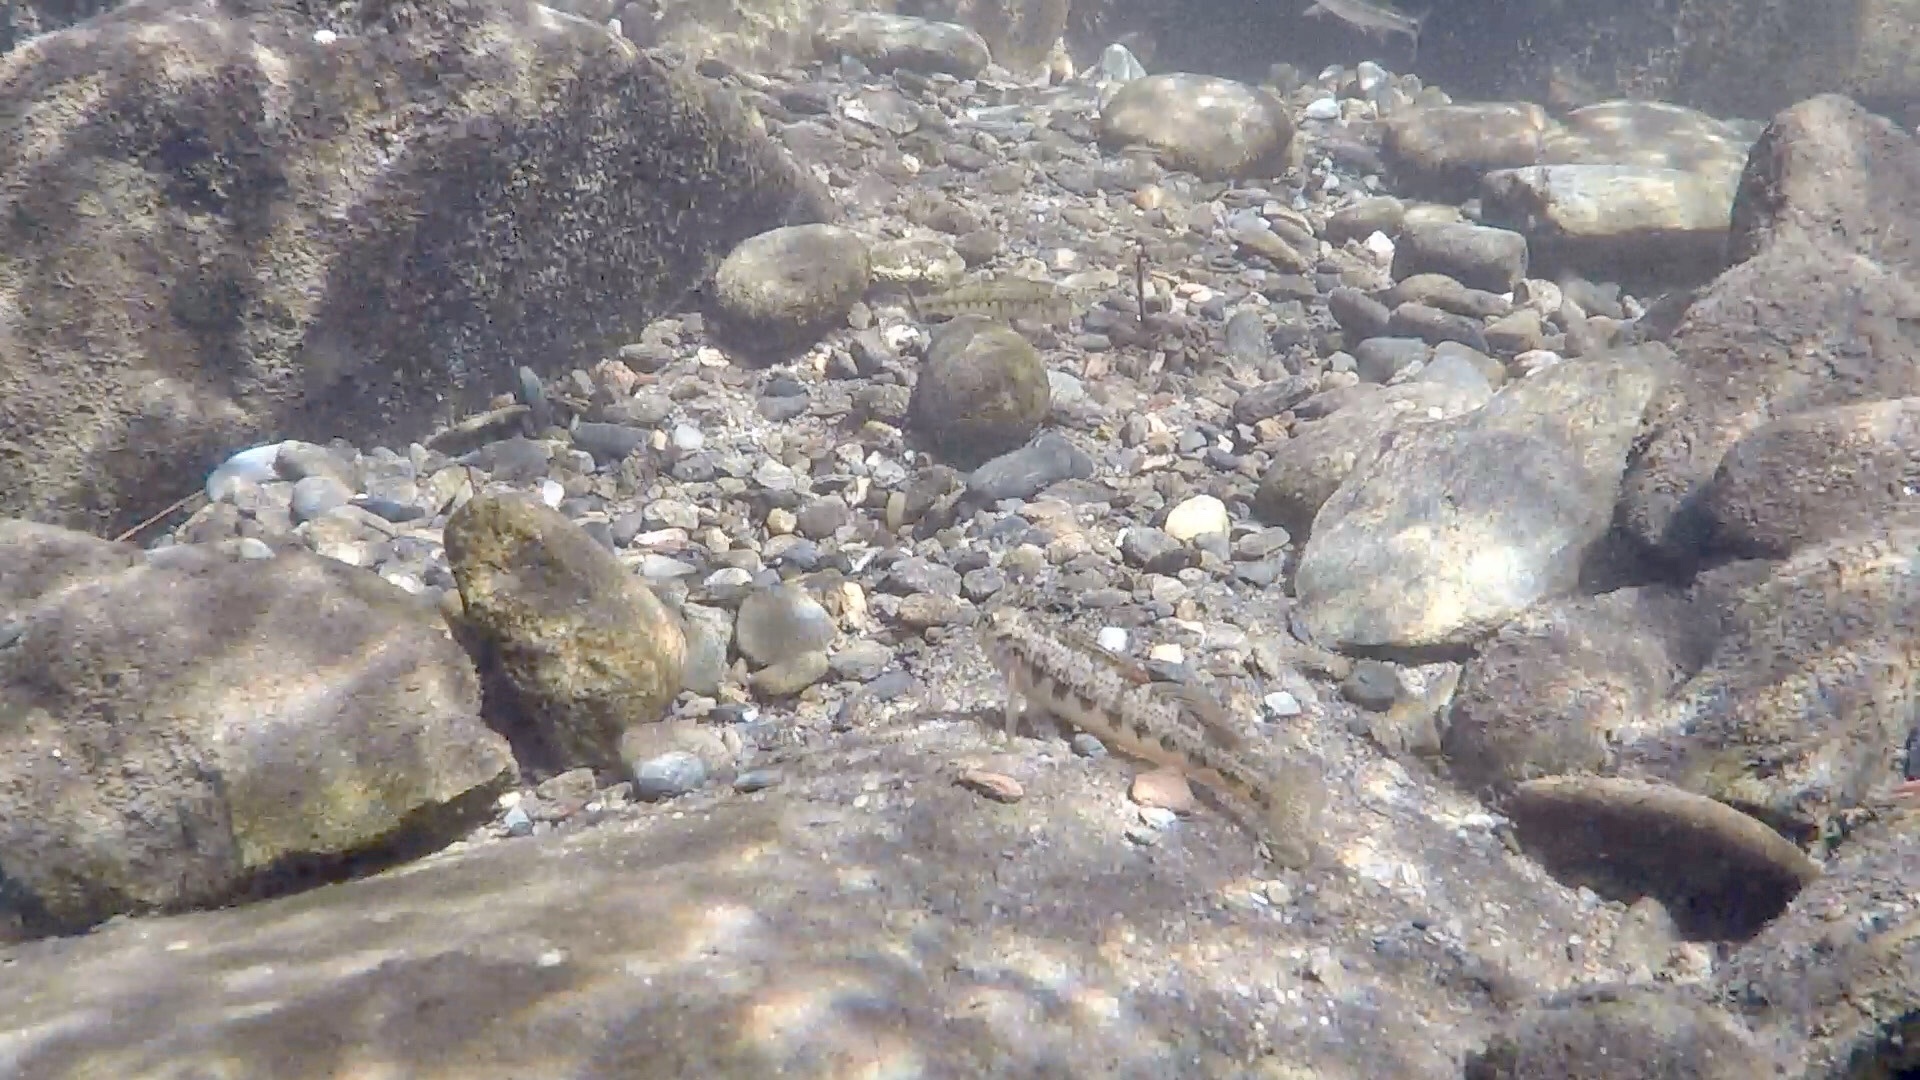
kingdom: Animalia
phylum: Chordata
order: Perciformes
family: Percidae
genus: Etheostoma
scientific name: Etheostoma simoterum
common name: Snubnose darter
